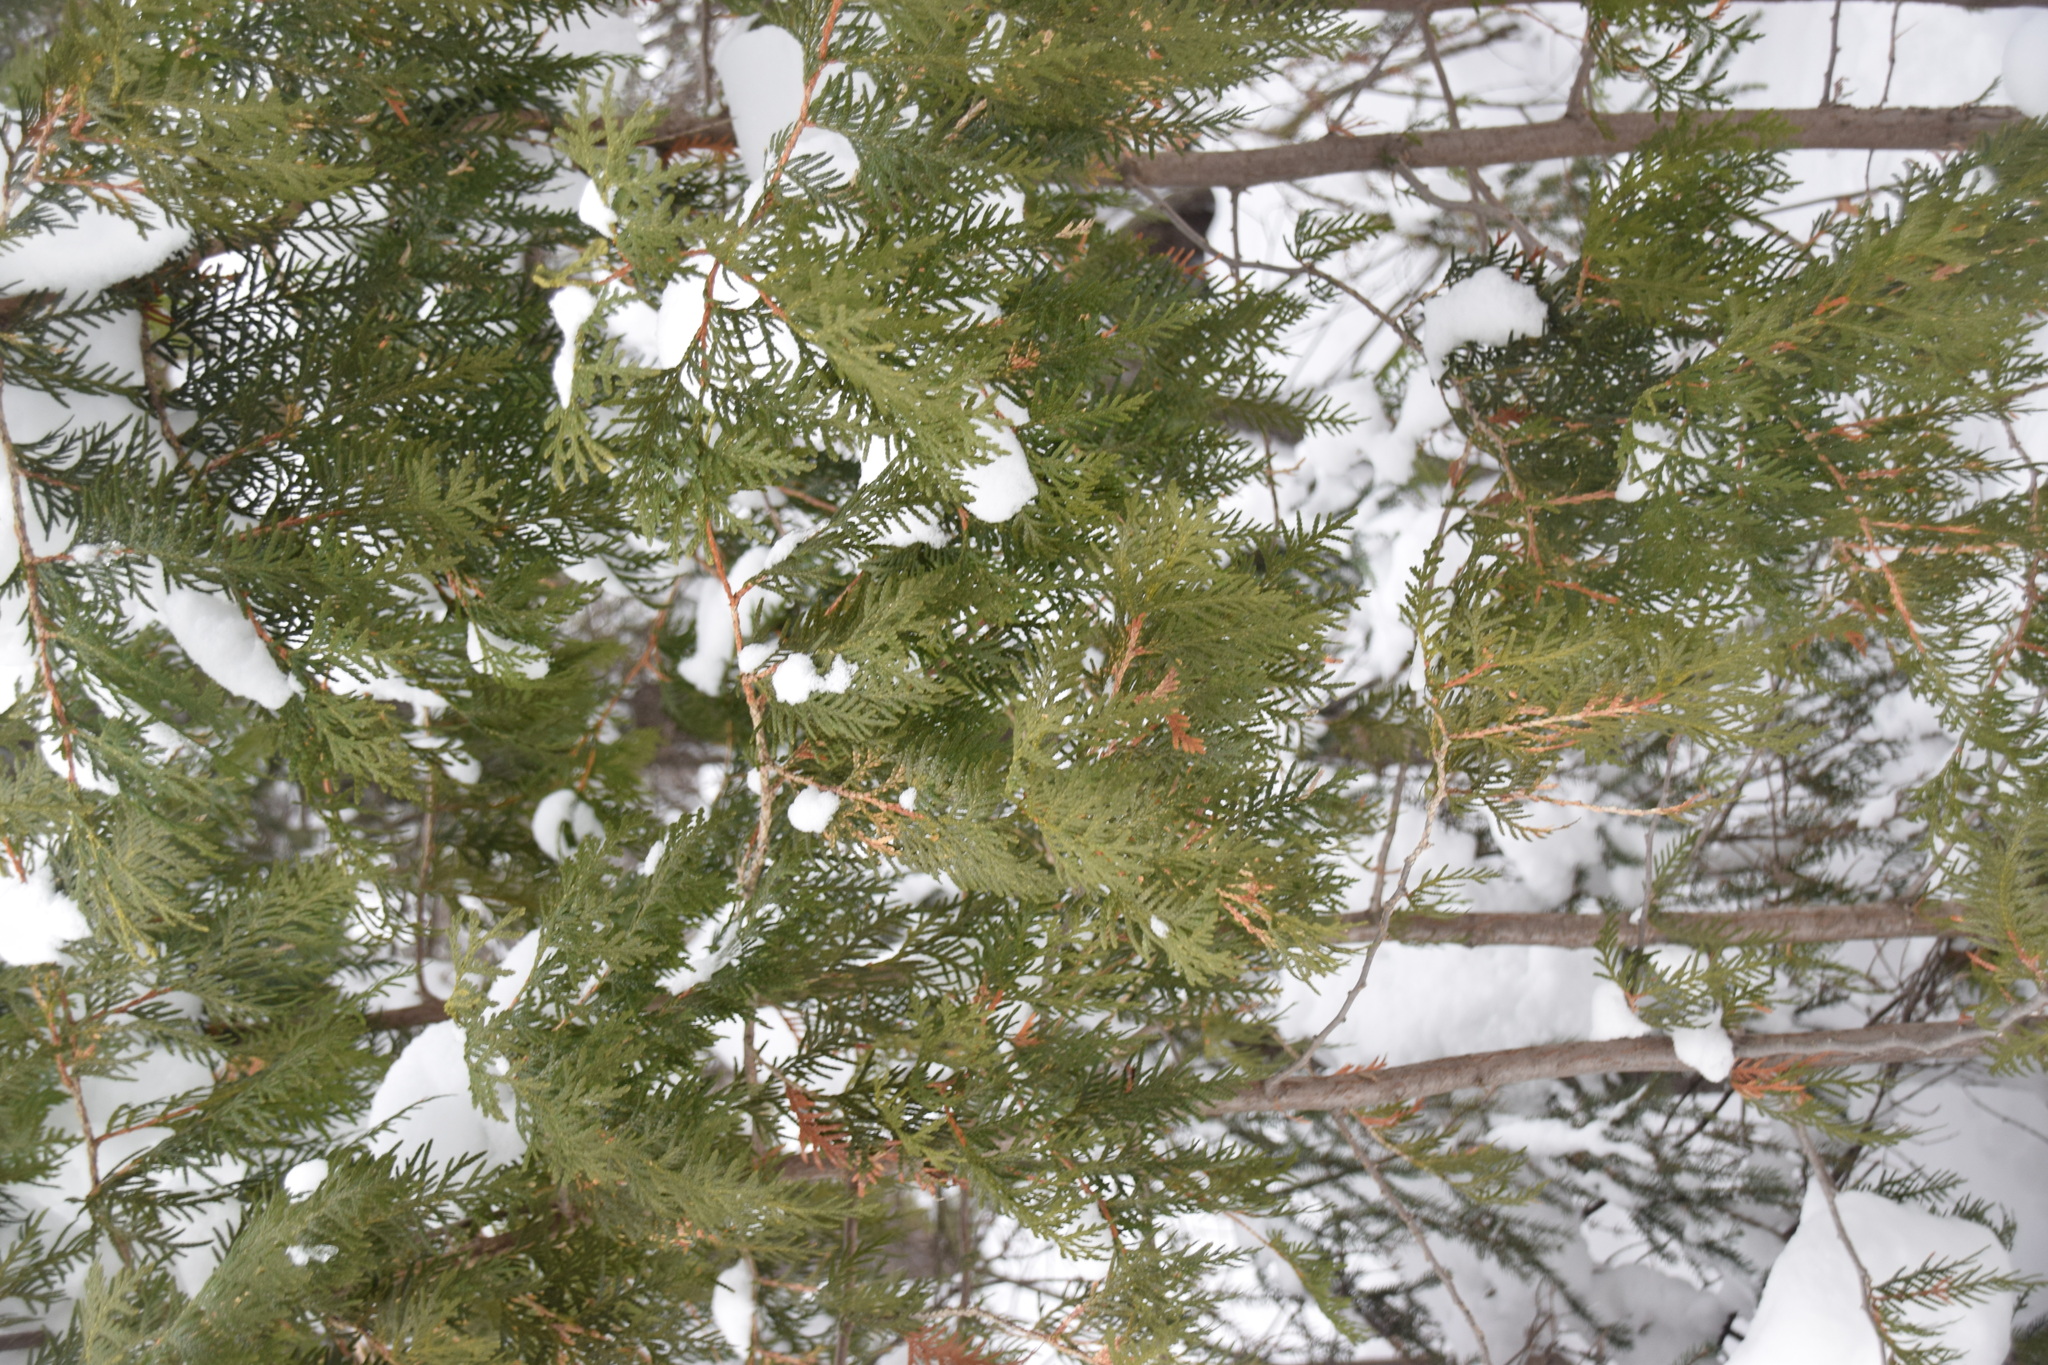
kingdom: Plantae
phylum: Tracheophyta
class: Pinopsida
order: Pinales
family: Cupressaceae
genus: Thuja
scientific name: Thuja occidentalis
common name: Northern white-cedar
